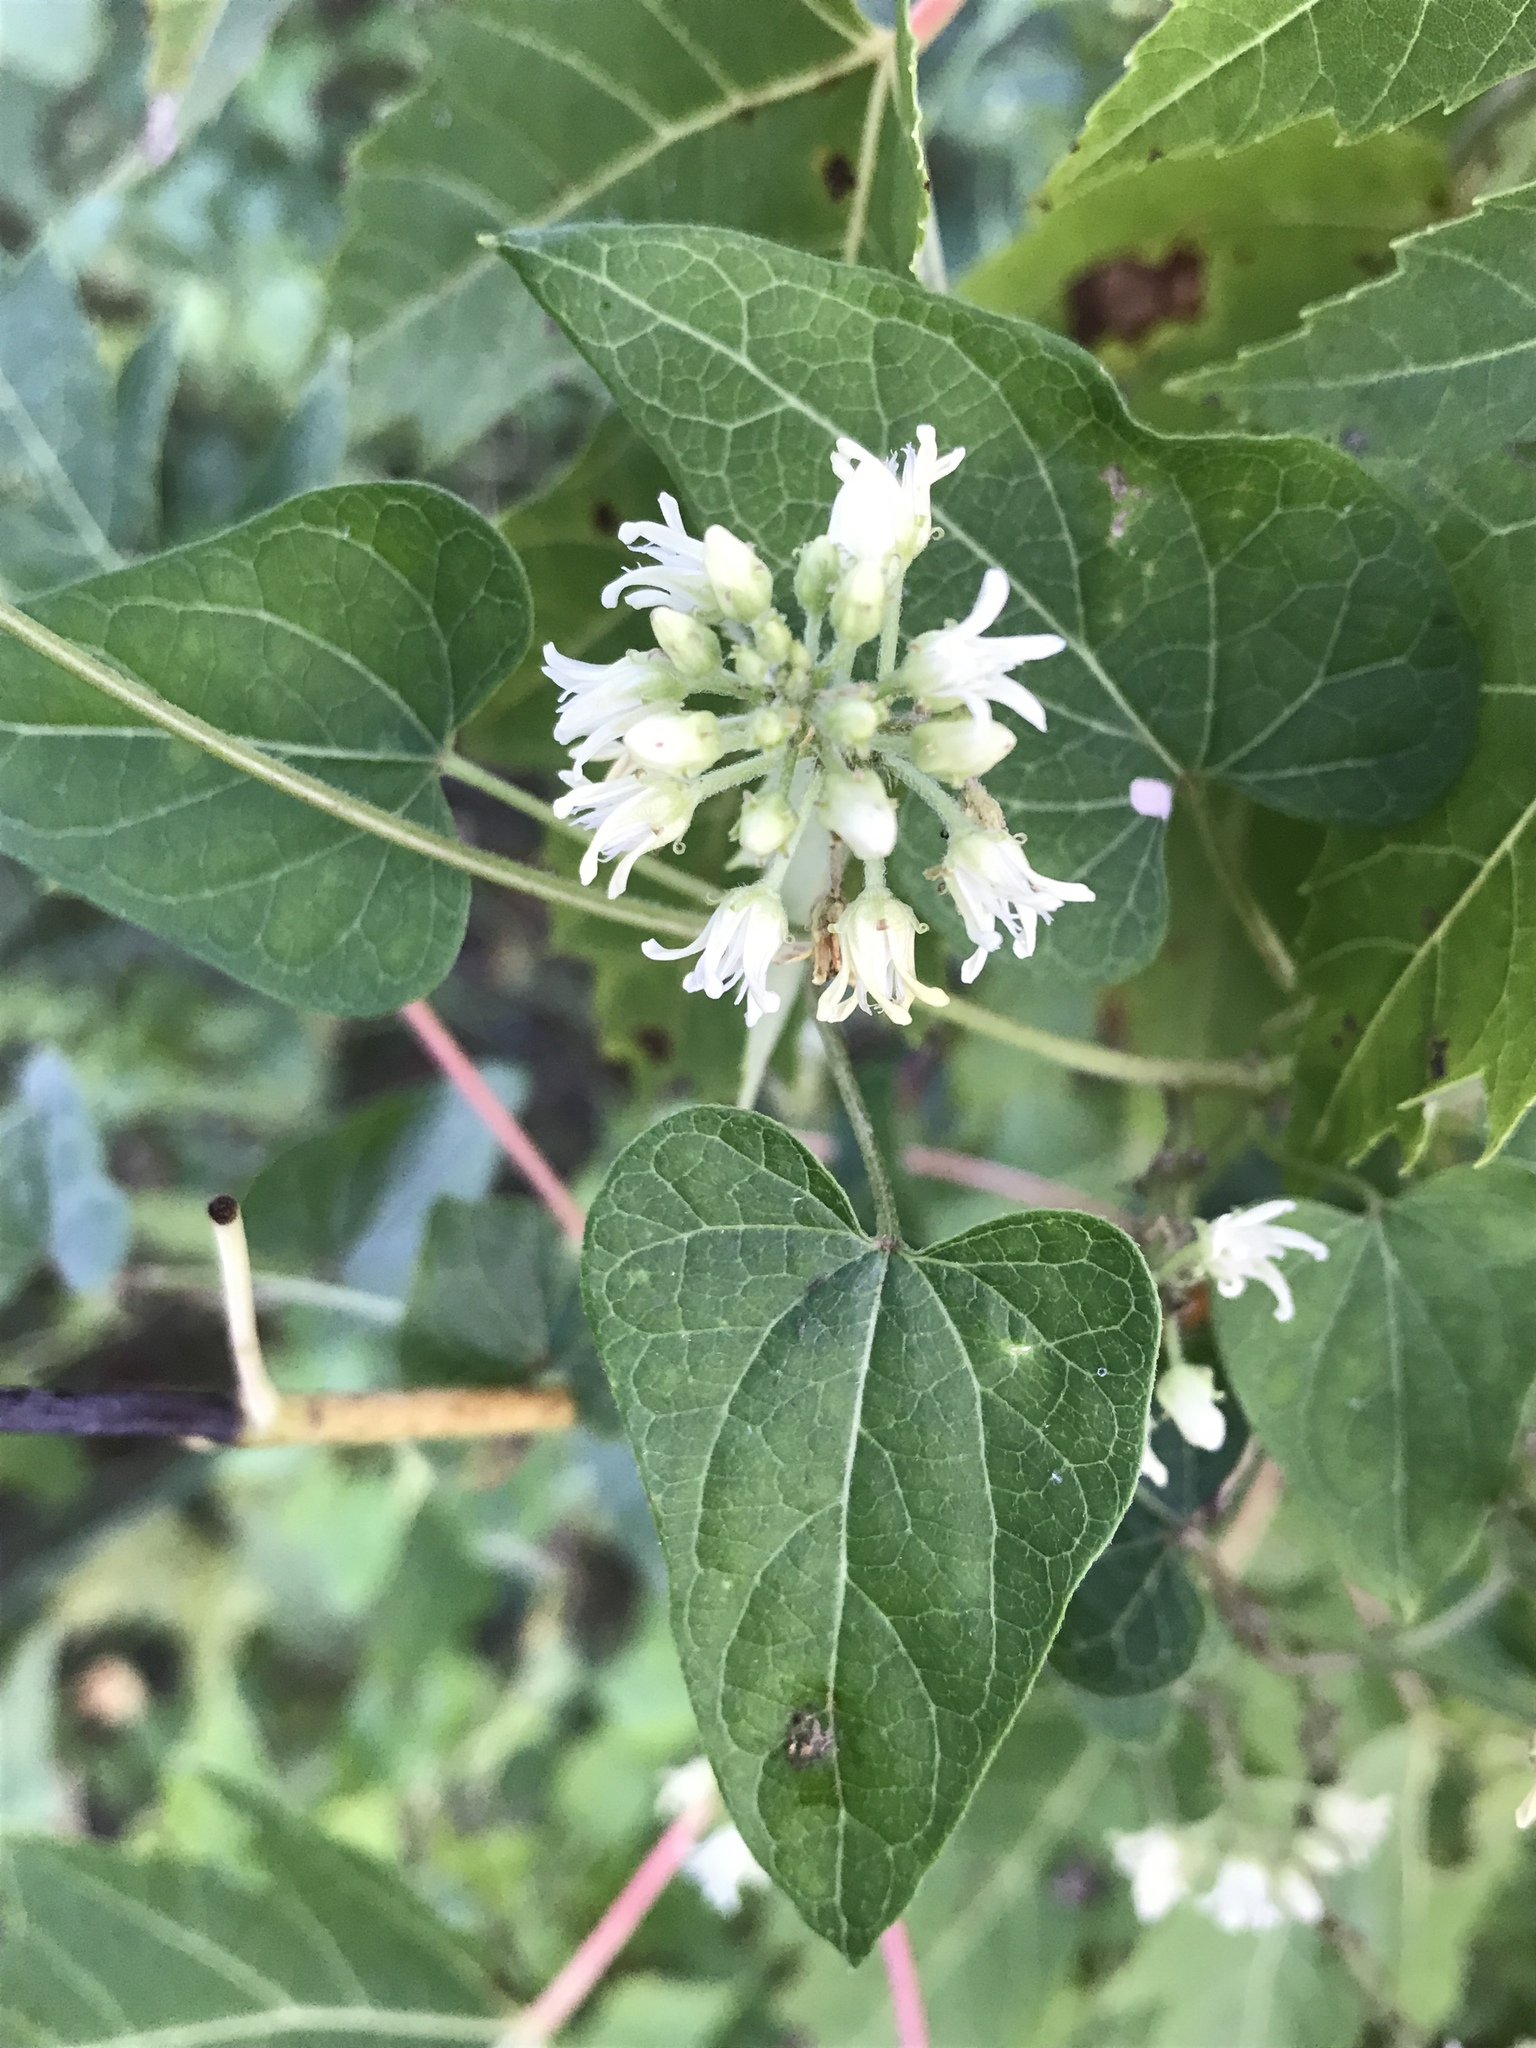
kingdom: Plantae
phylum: Tracheophyta
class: Magnoliopsida
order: Gentianales
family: Apocynaceae
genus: Cynanchum
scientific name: Cynanchum laeve
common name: Sandvine
